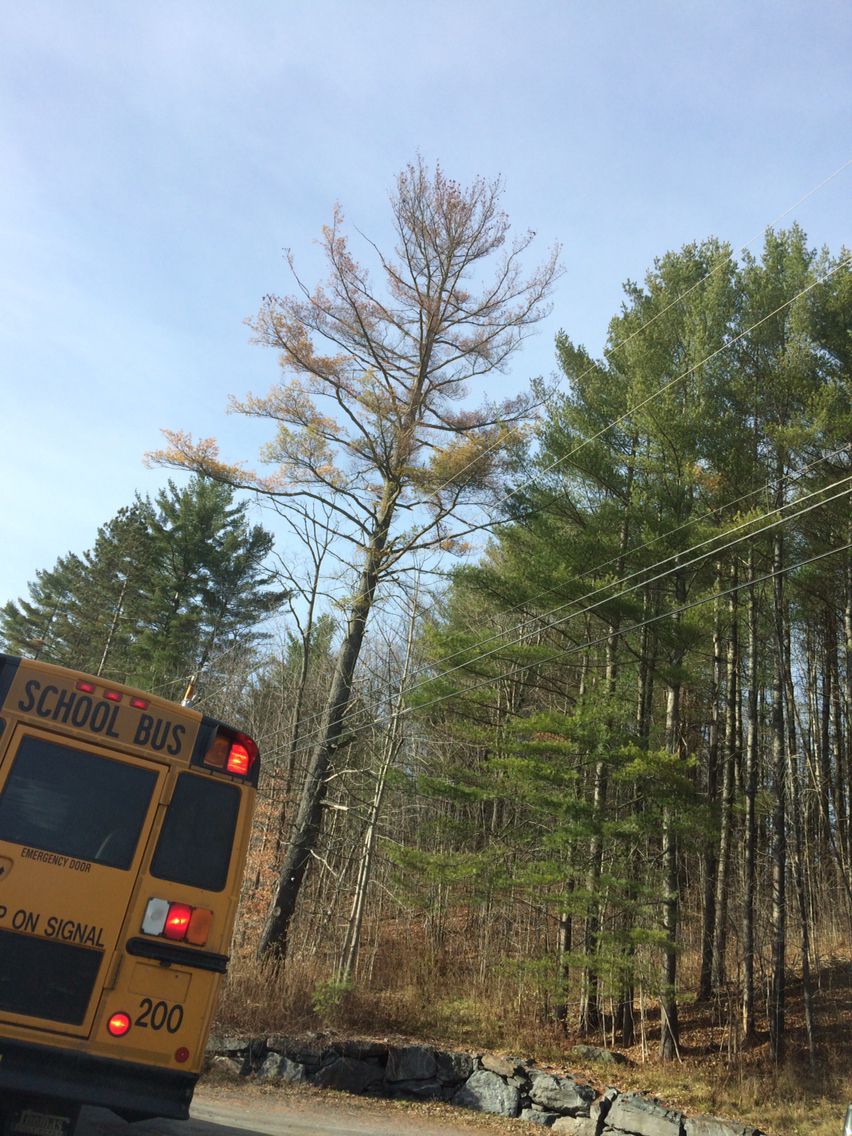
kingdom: Plantae
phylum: Tracheophyta
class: Pinopsida
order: Pinales
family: Pinaceae
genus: Pinus
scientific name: Pinus strobus
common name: Weymouth pine
